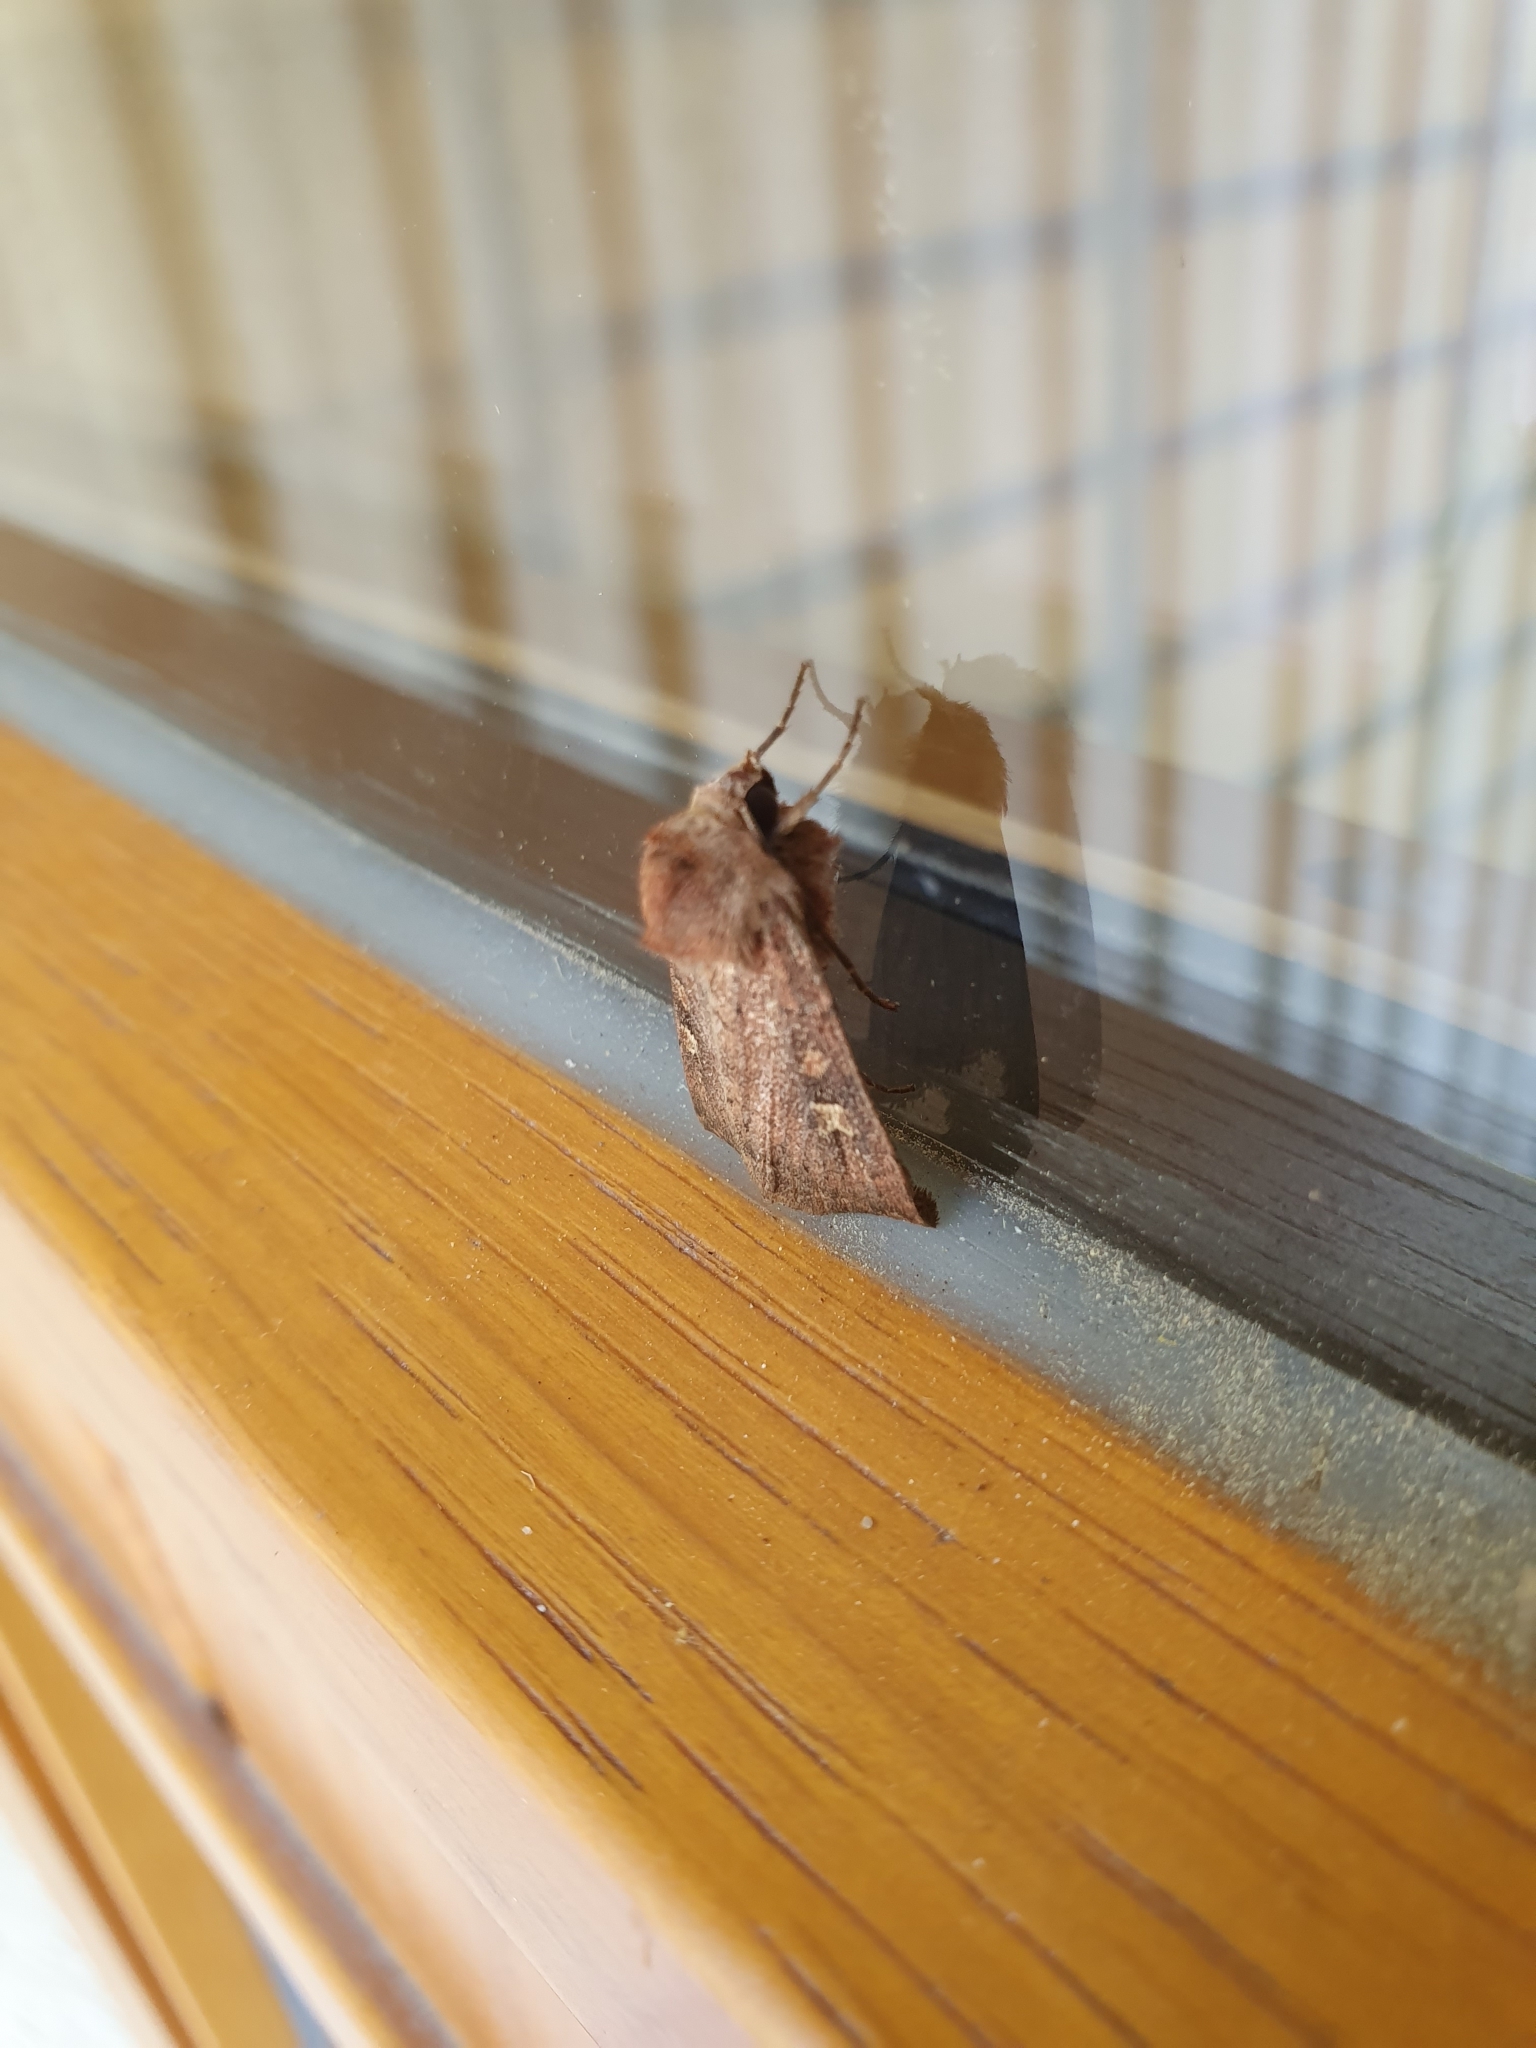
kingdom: Animalia
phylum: Arthropoda
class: Insecta
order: Lepidoptera
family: Noctuidae
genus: Xestia
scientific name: Xestia xanthographa
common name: Square-spot rustic
